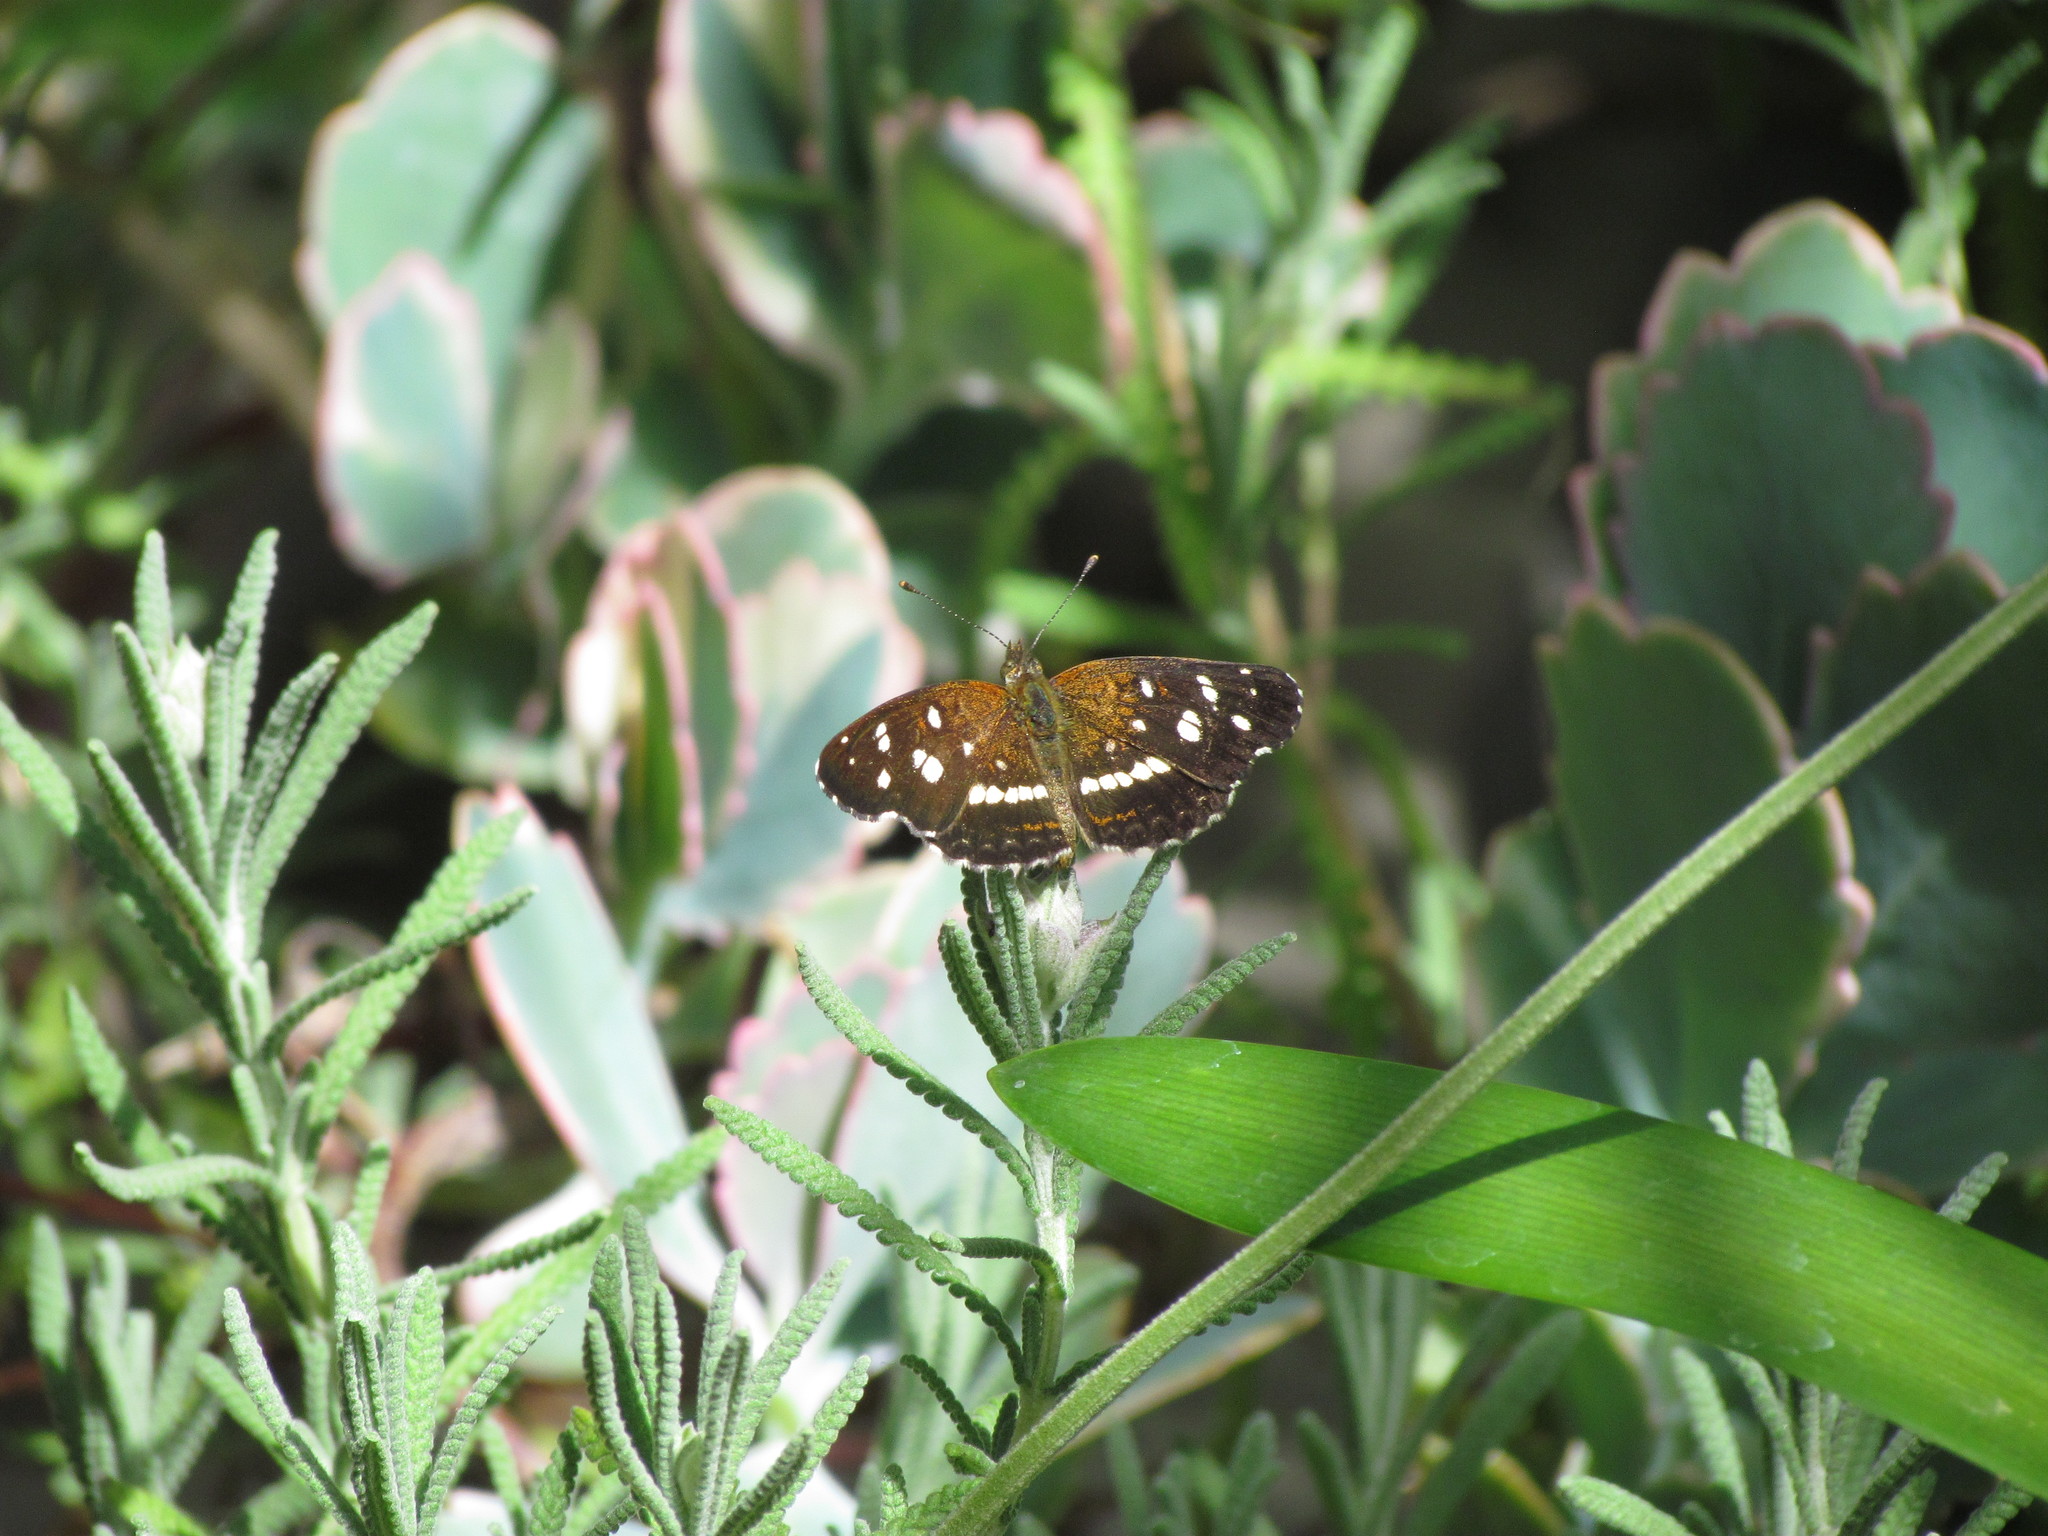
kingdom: Animalia
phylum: Arthropoda
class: Insecta
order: Lepidoptera
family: Nymphalidae
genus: Ortilia
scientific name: Ortilia ithra
